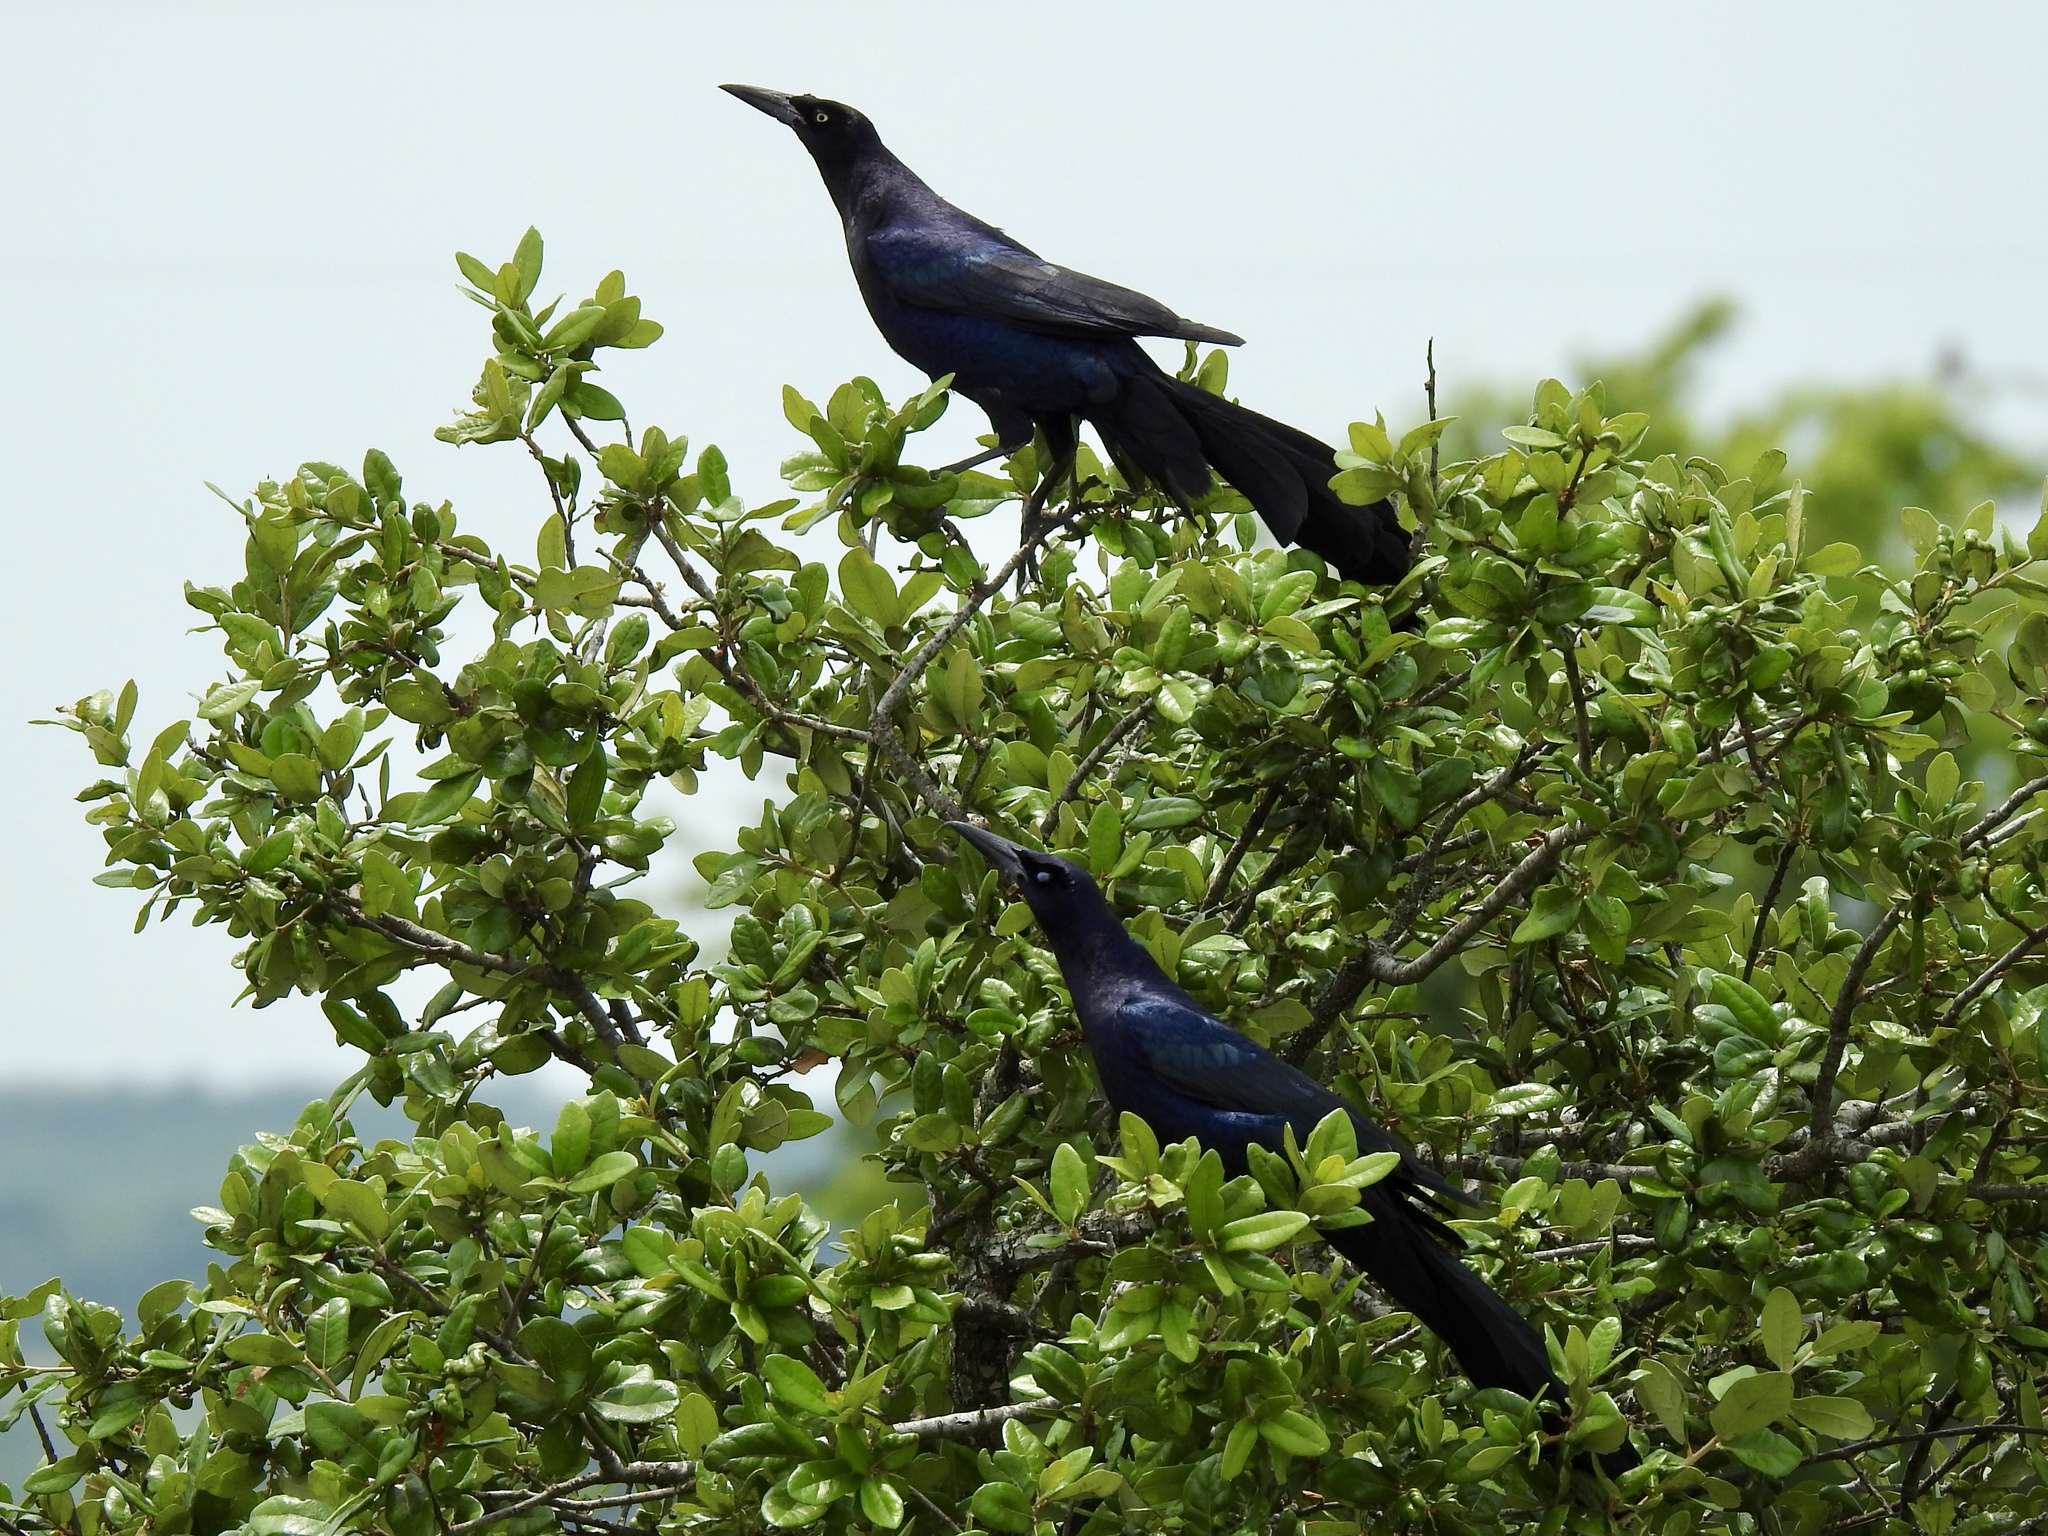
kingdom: Animalia
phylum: Chordata
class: Aves
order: Passeriformes
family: Icteridae
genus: Quiscalus
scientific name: Quiscalus mexicanus
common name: Great-tailed grackle
